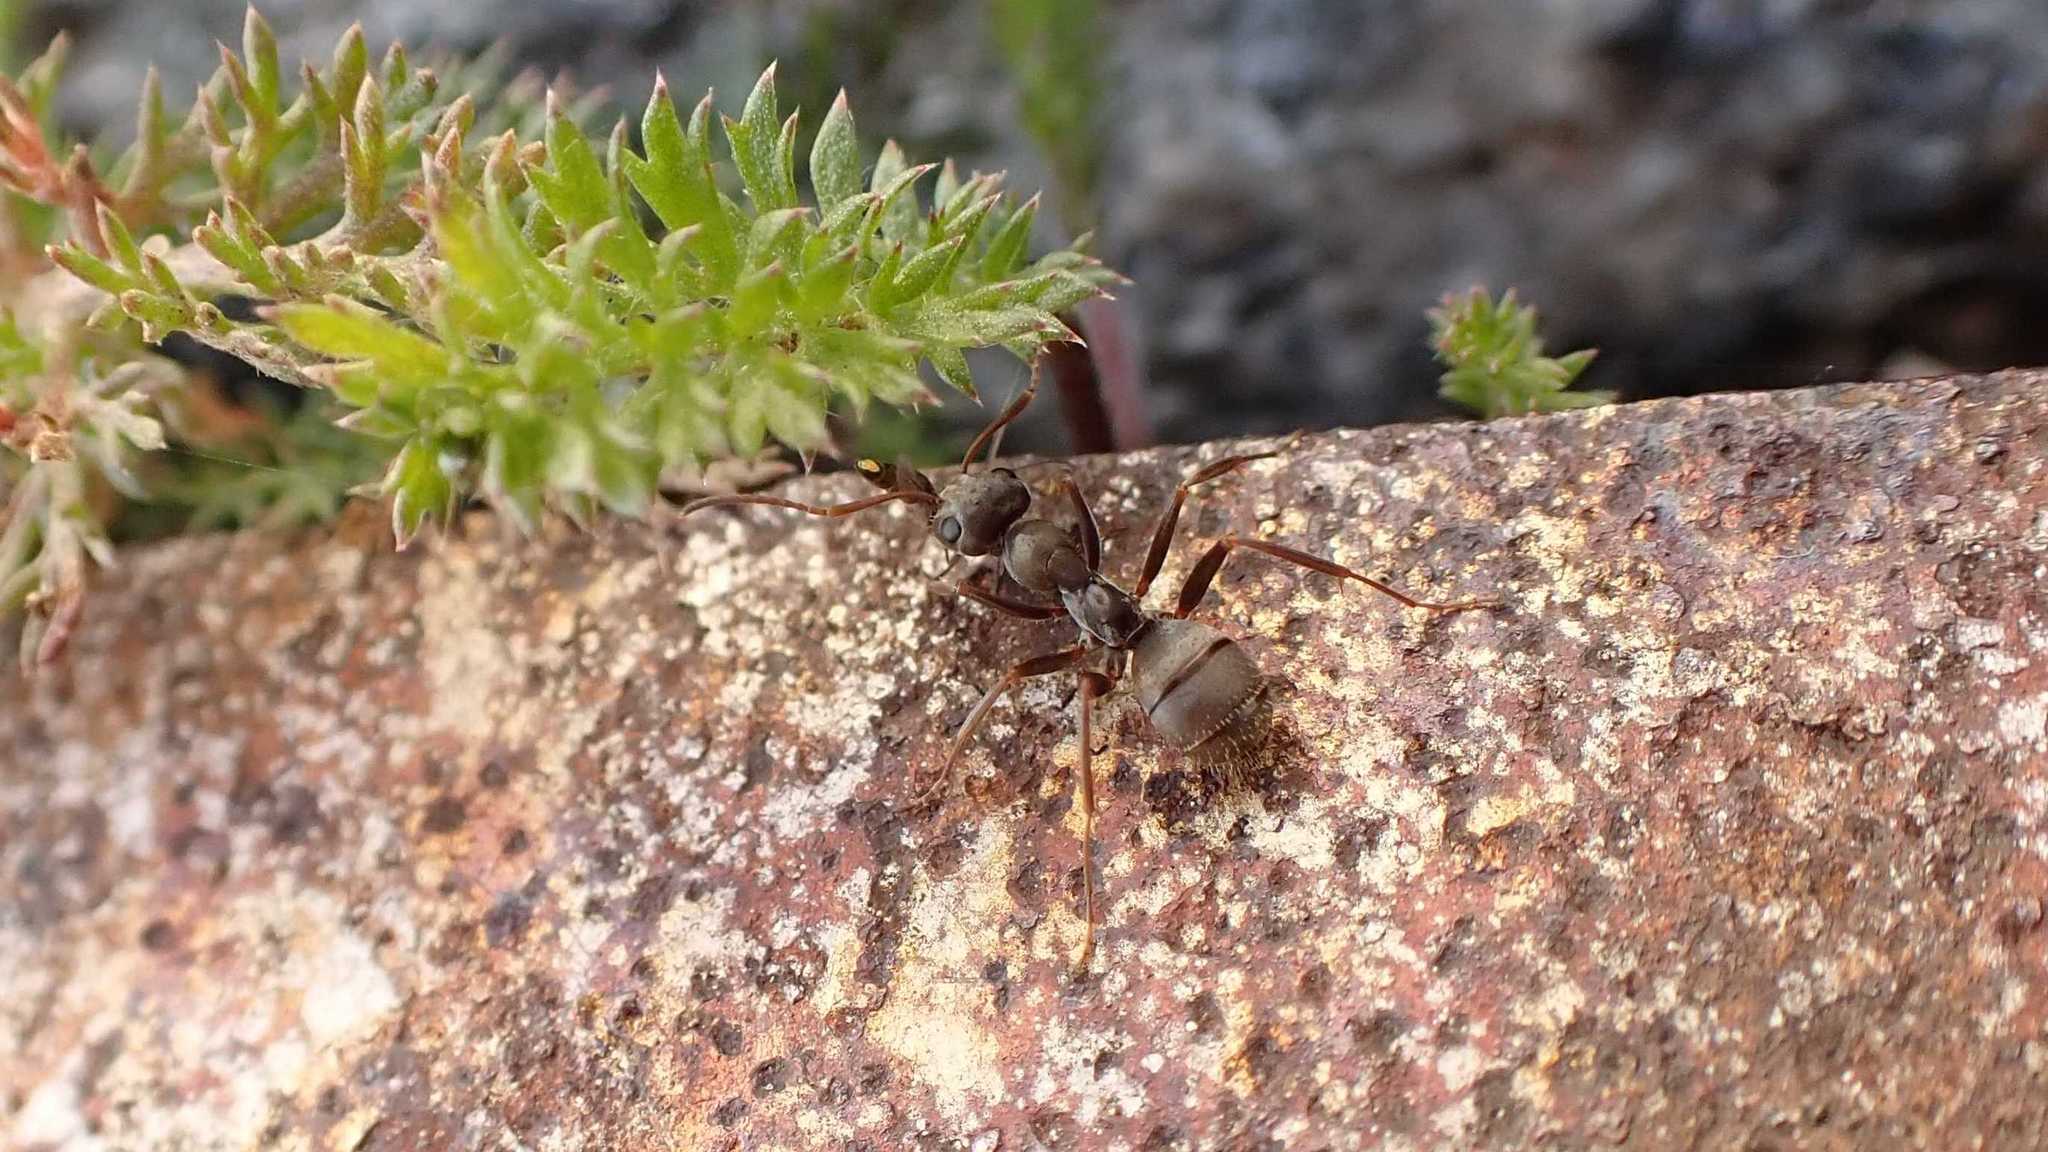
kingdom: Animalia
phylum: Arthropoda
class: Insecta
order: Hymenoptera
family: Formicidae
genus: Formica
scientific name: Formica cinerea
